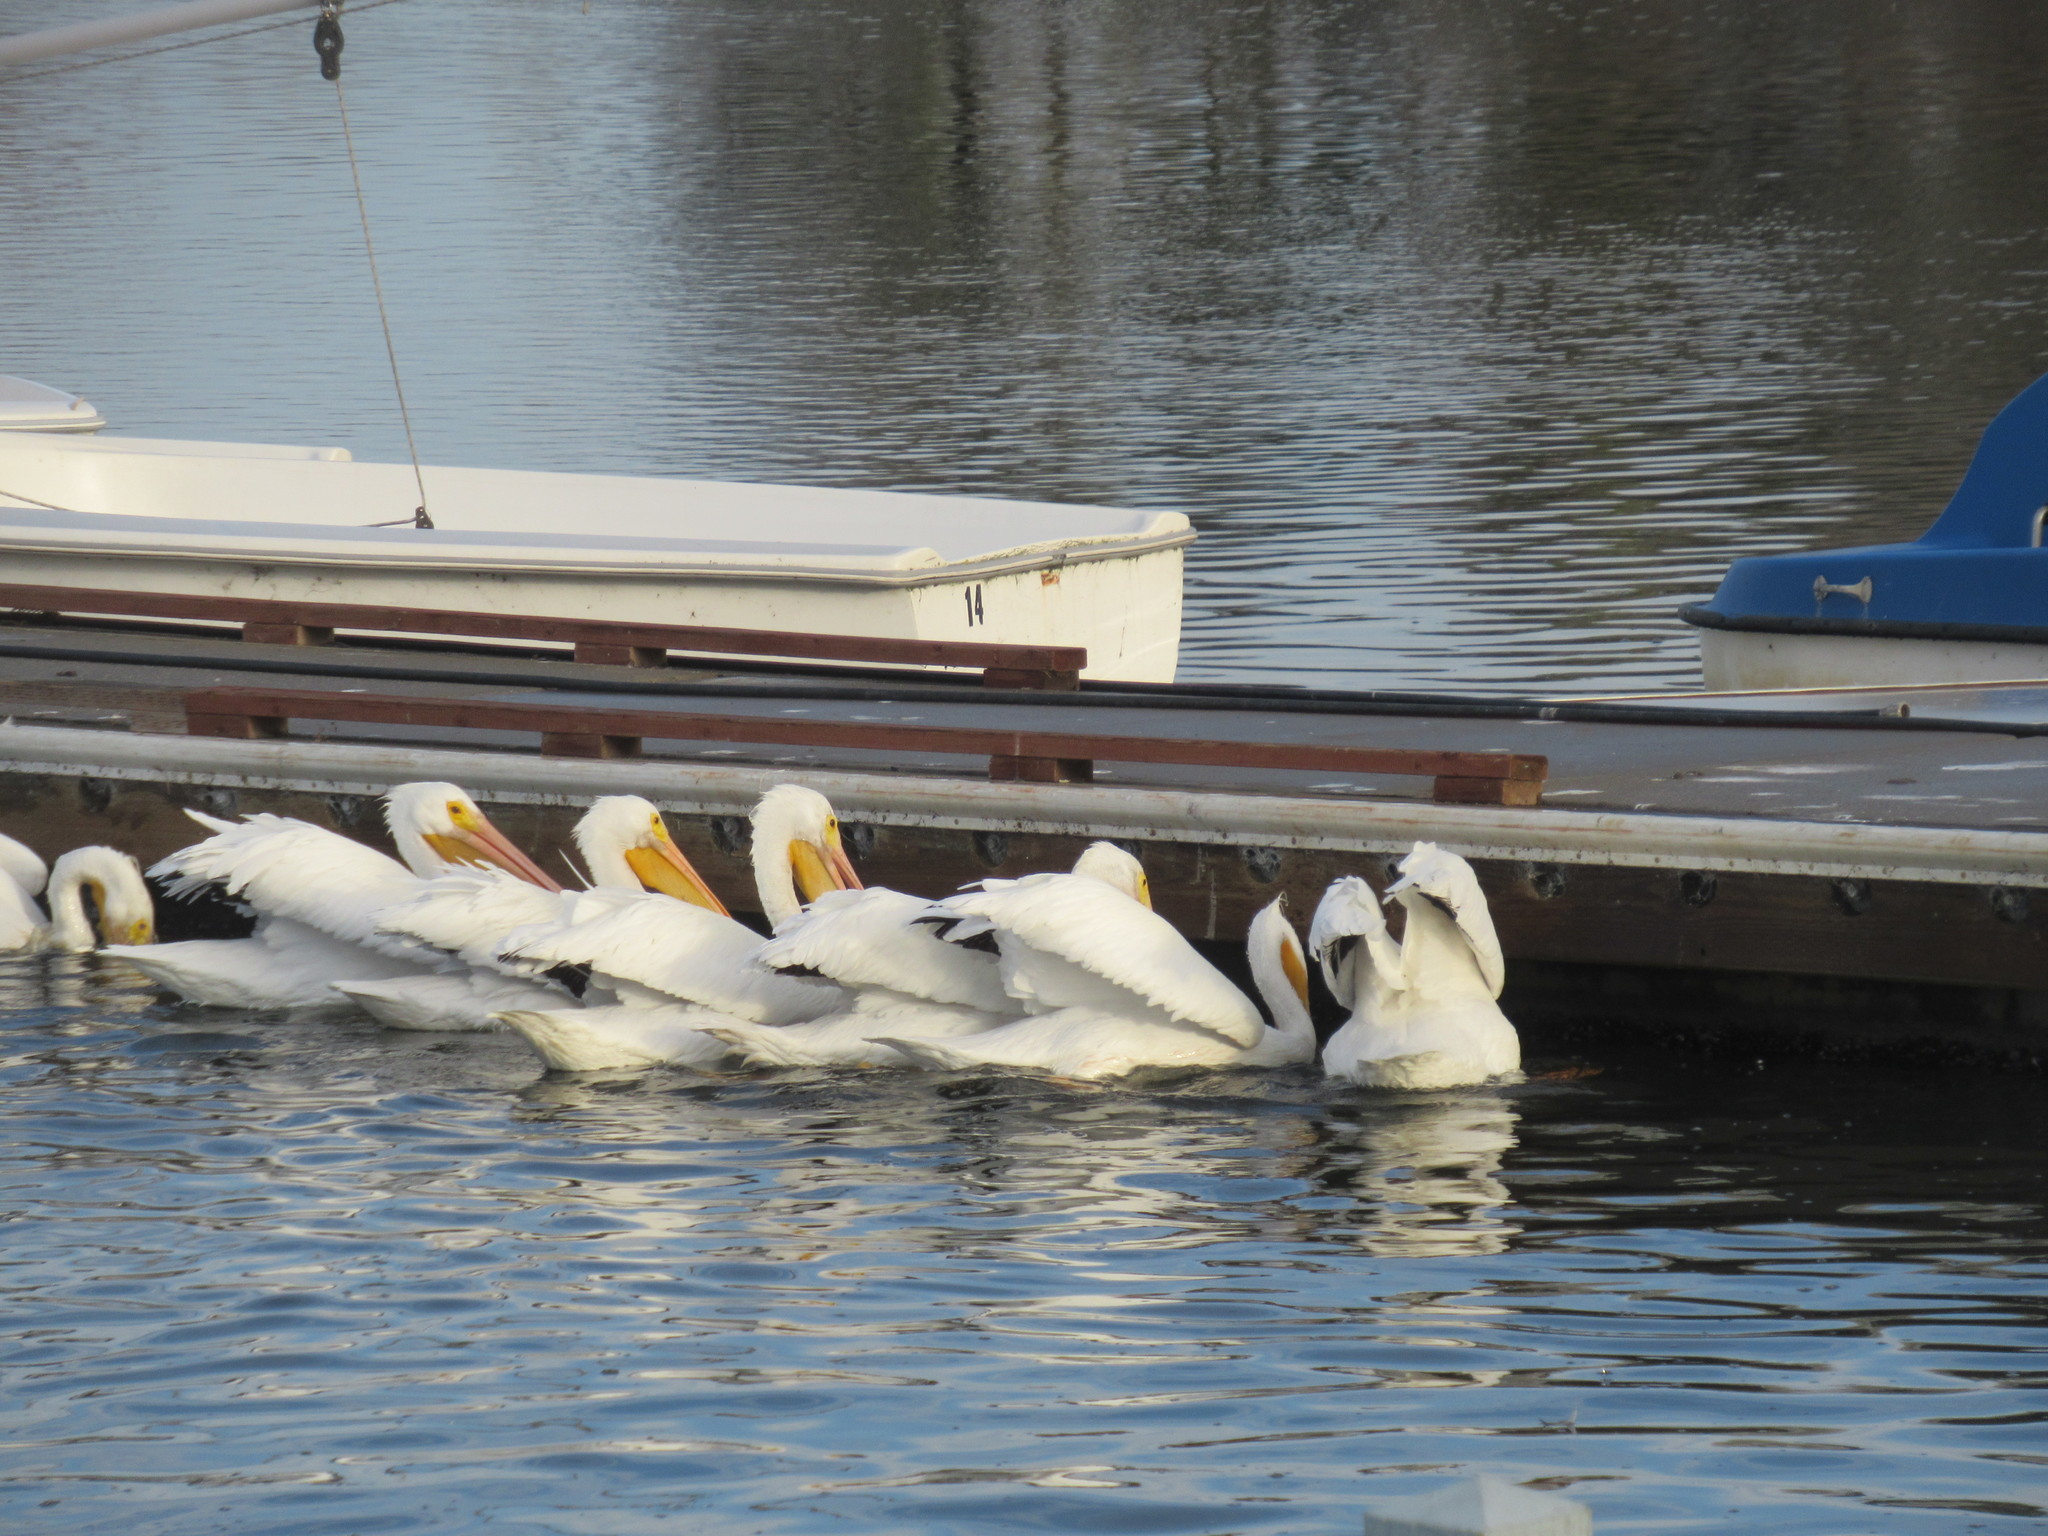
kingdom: Animalia
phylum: Chordata
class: Aves
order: Pelecaniformes
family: Pelecanidae
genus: Pelecanus
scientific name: Pelecanus erythrorhynchos
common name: American white pelican
